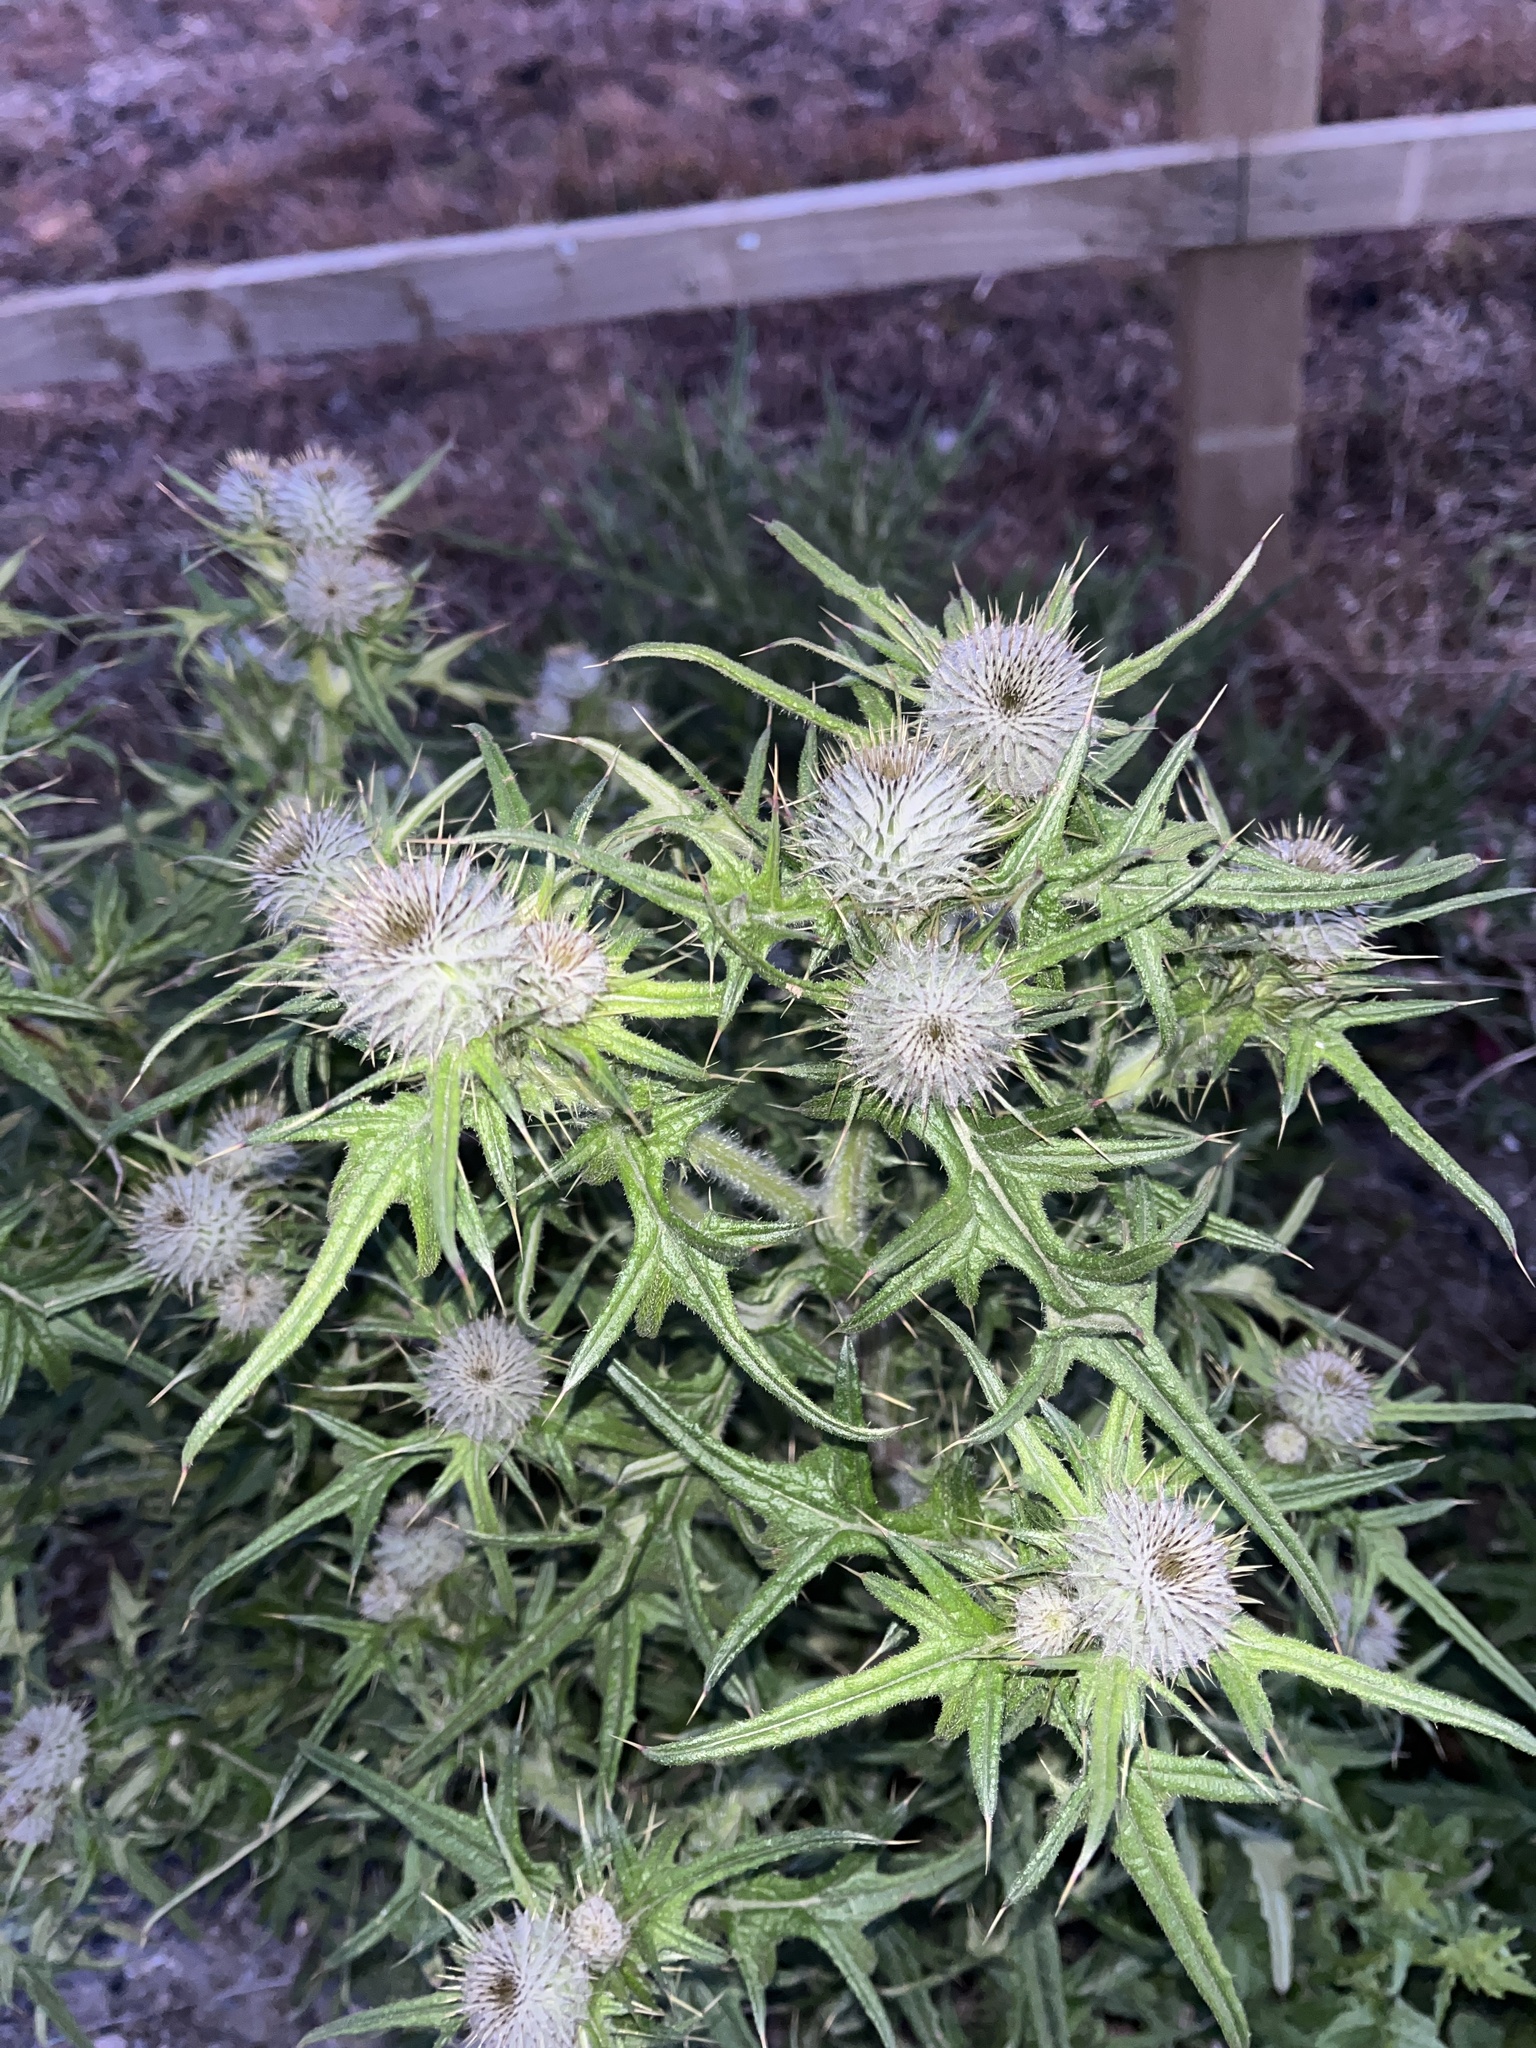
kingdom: Plantae
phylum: Tracheophyta
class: Magnoliopsida
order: Asterales
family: Asteraceae
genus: Cirsium
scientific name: Cirsium vulgare
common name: Bull thistle
